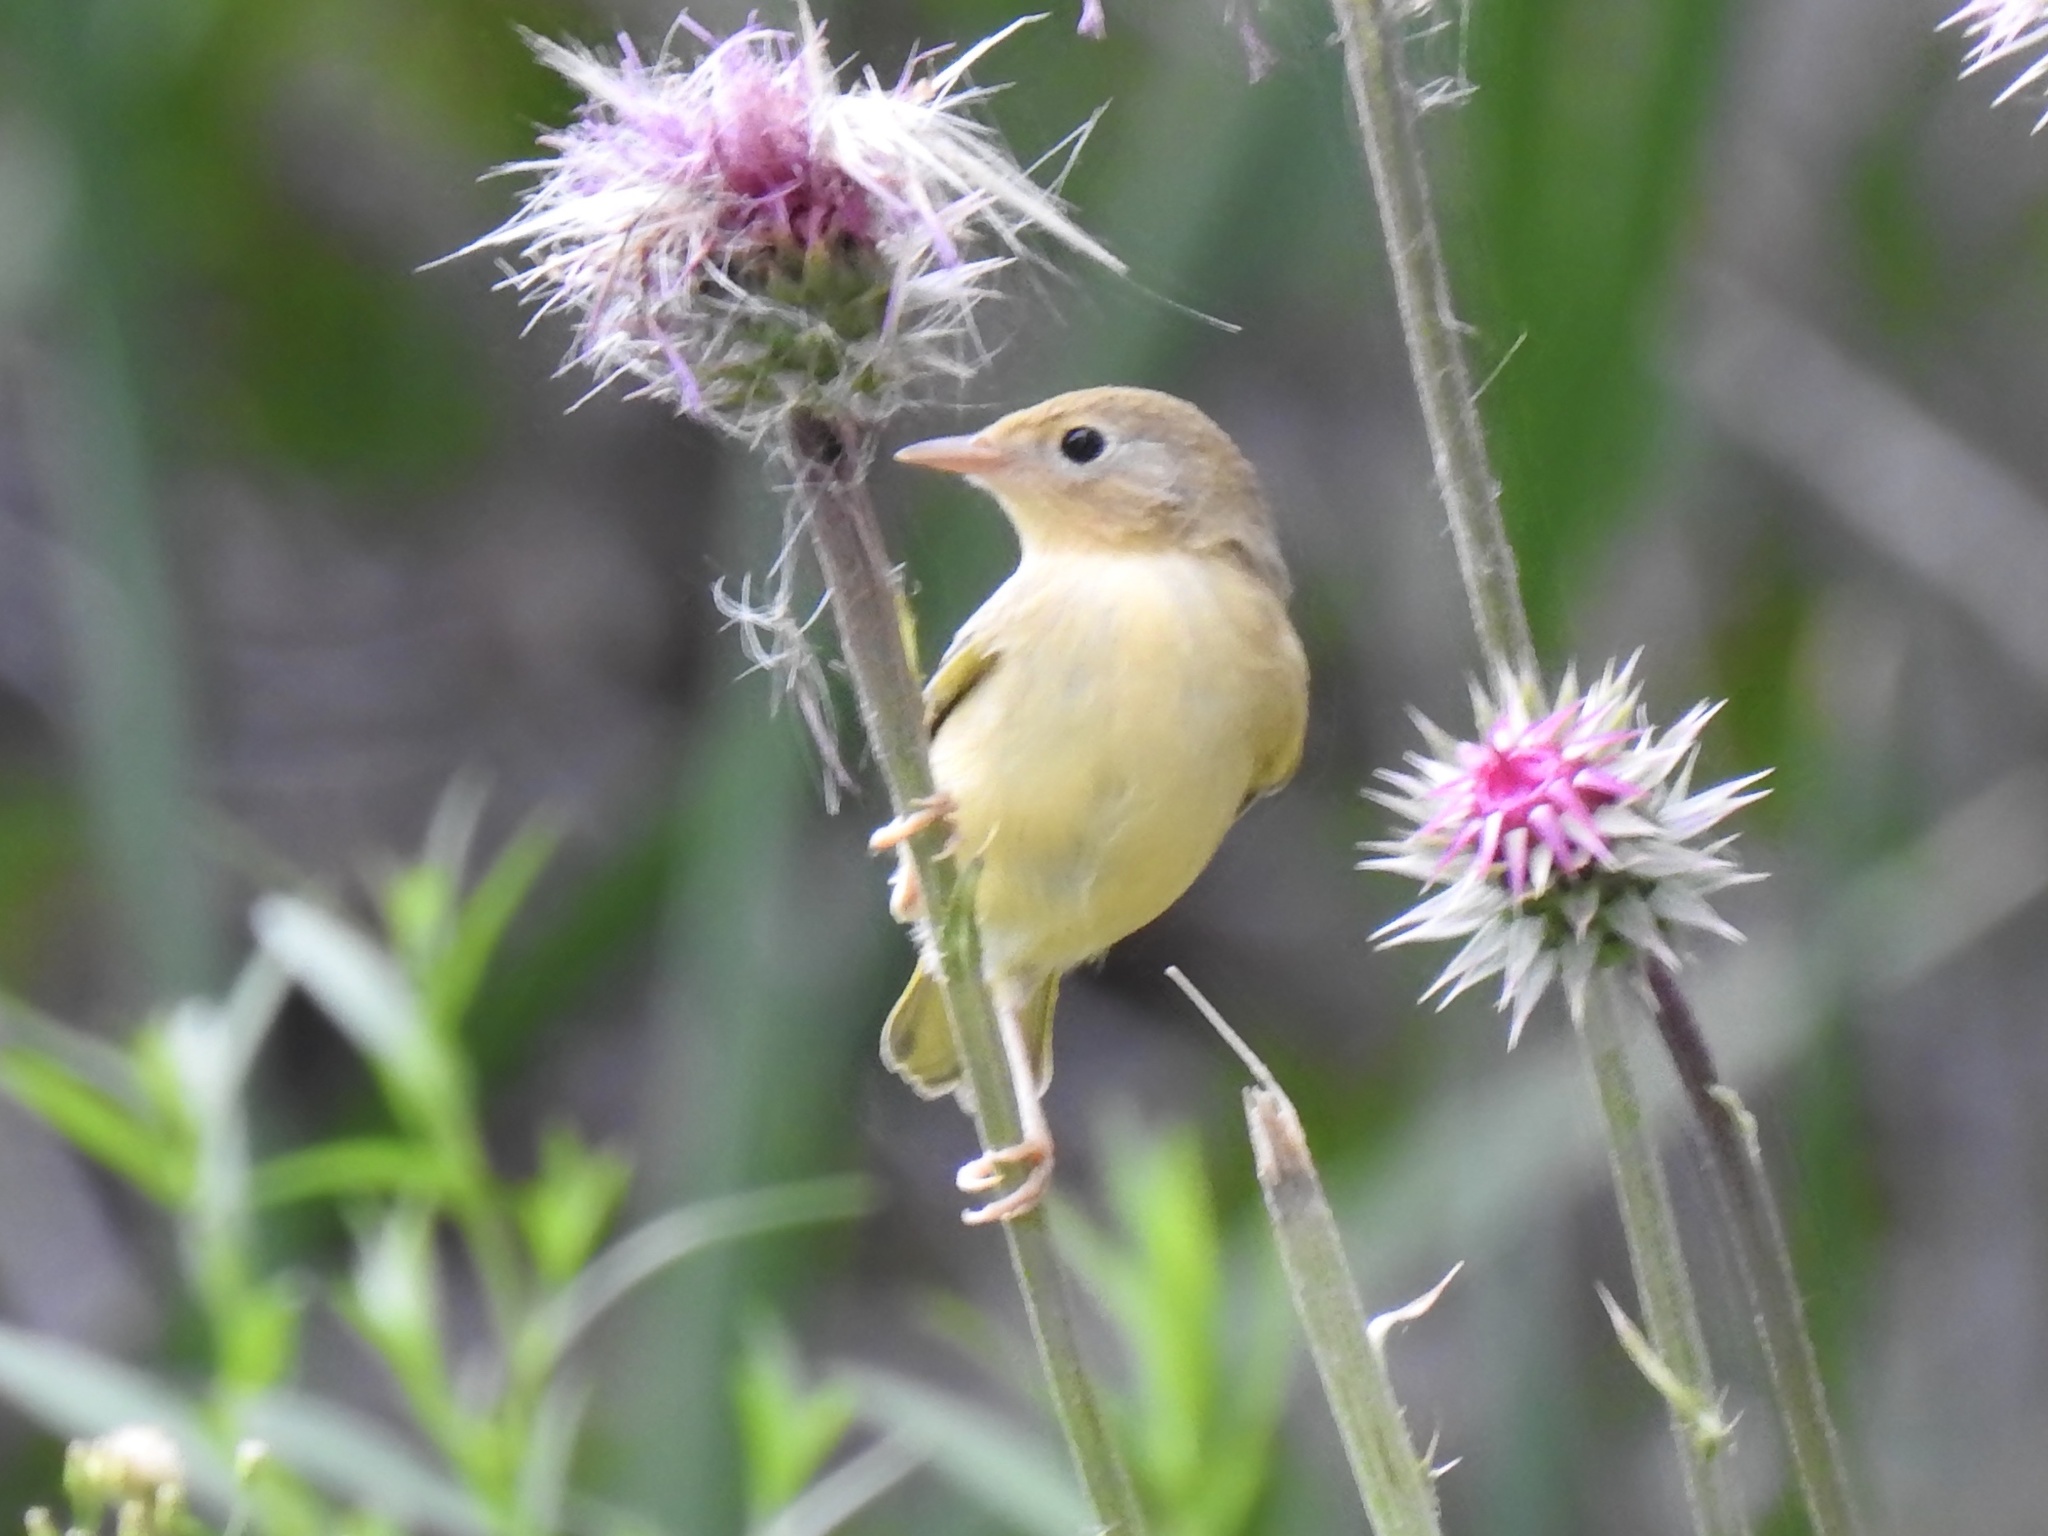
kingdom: Animalia
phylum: Chordata
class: Aves
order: Passeriformes
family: Parulidae
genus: Setophaga
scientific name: Setophaga petechia
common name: Yellow warbler
